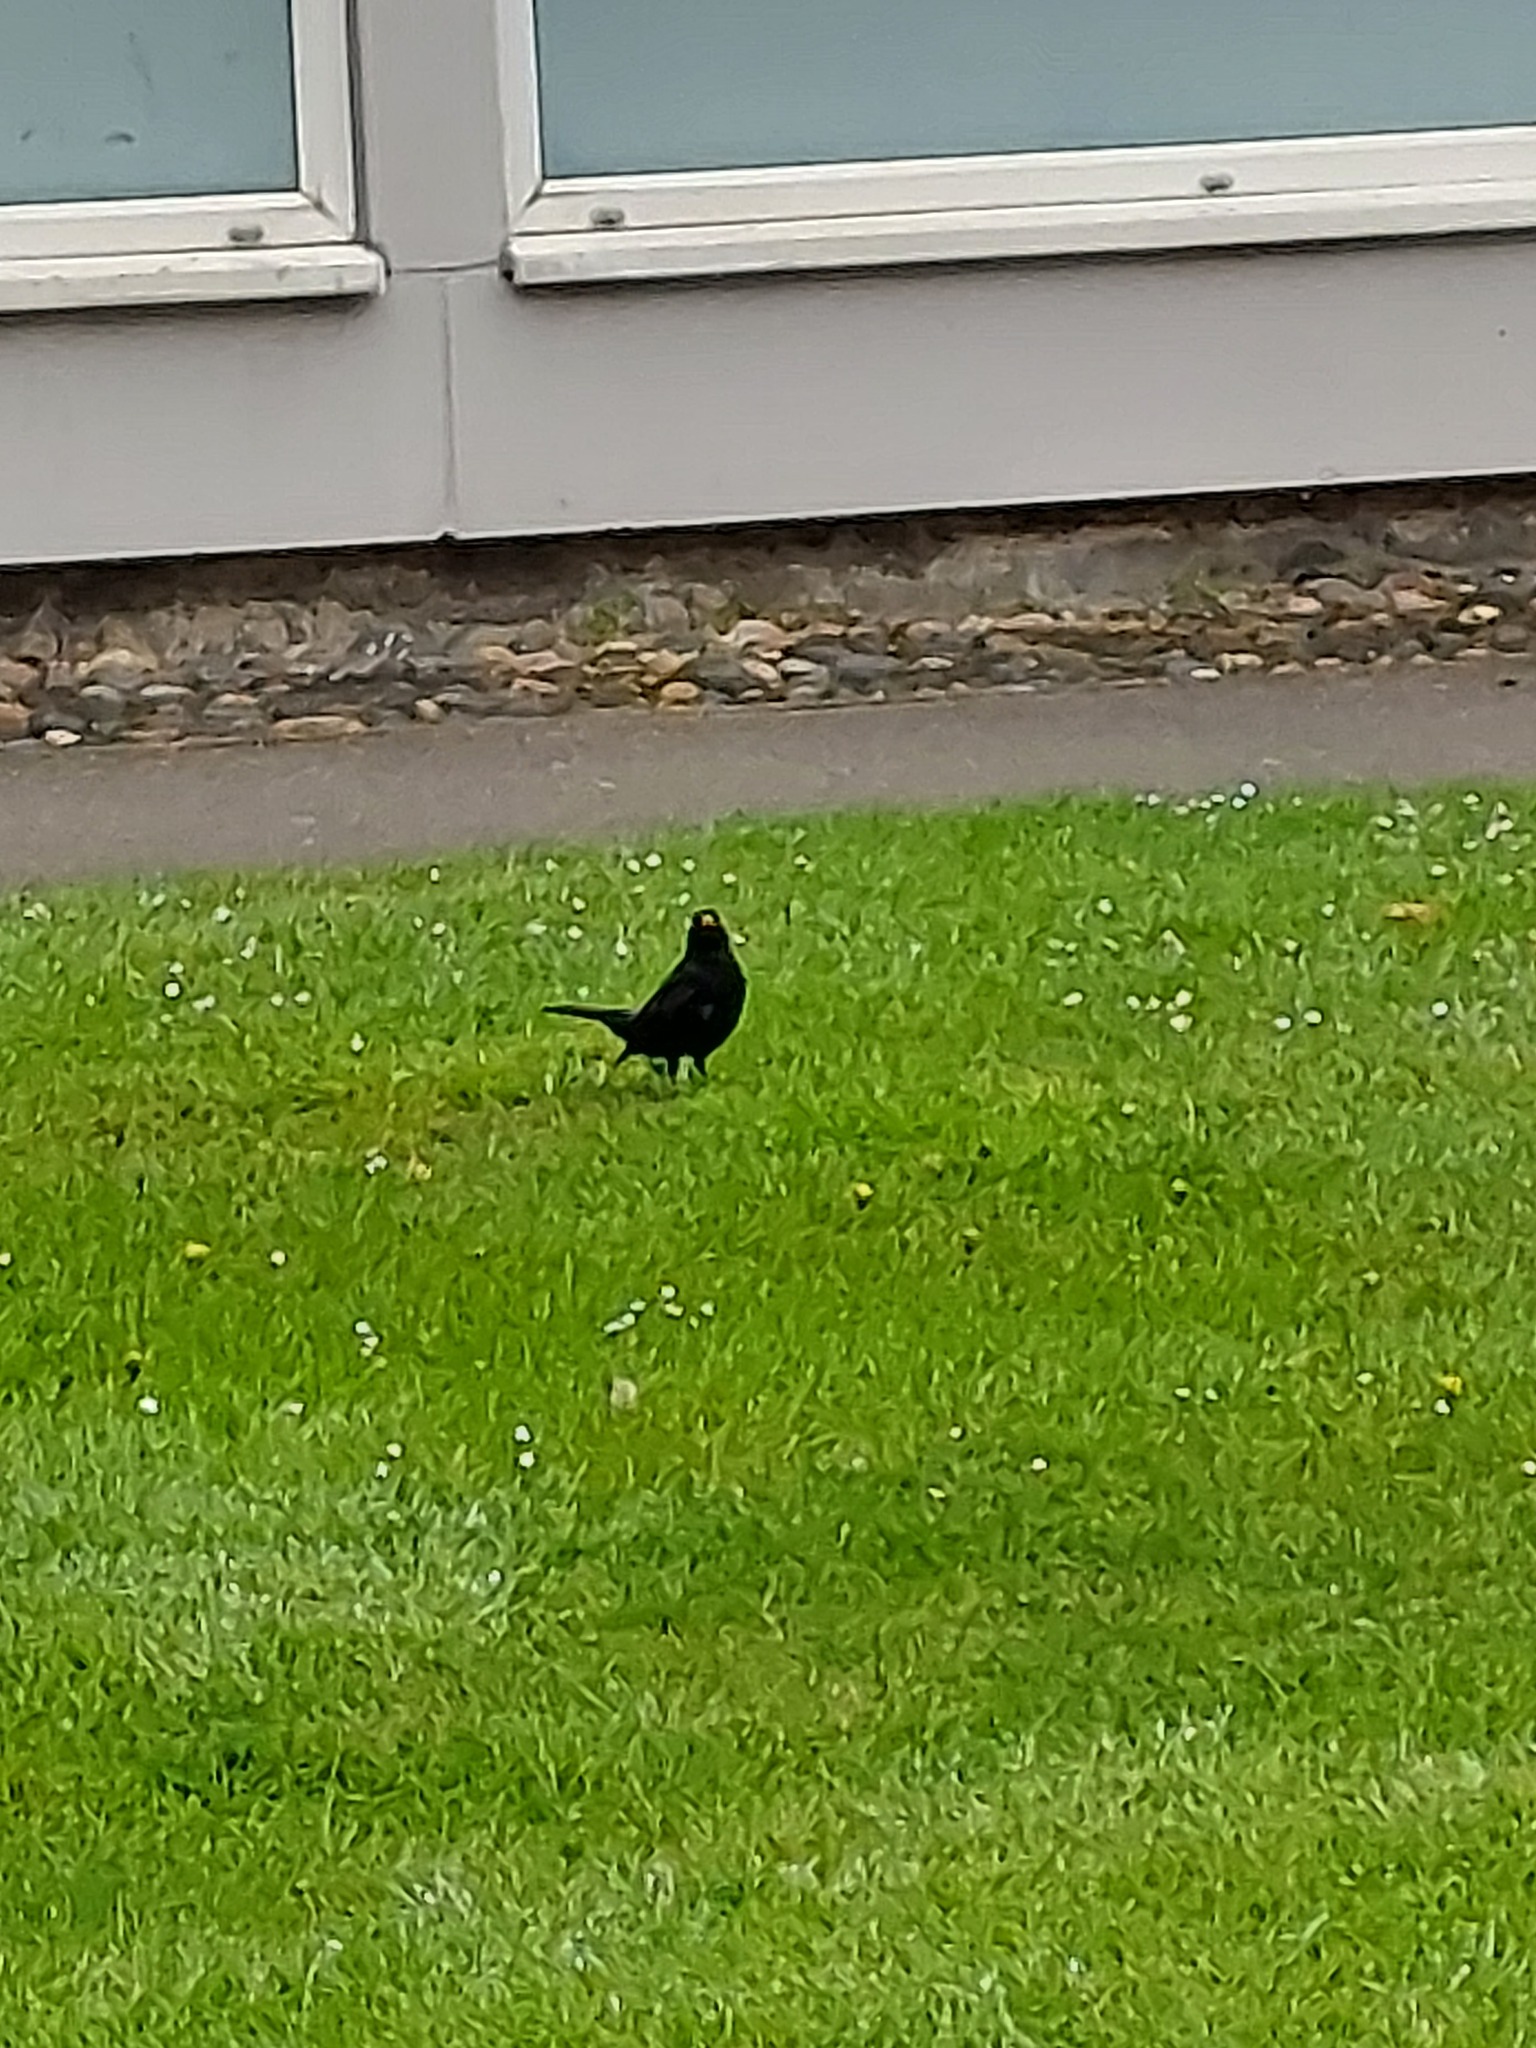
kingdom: Animalia
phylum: Chordata
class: Aves
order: Passeriformes
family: Turdidae
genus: Turdus
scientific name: Turdus merula
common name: Common blackbird
